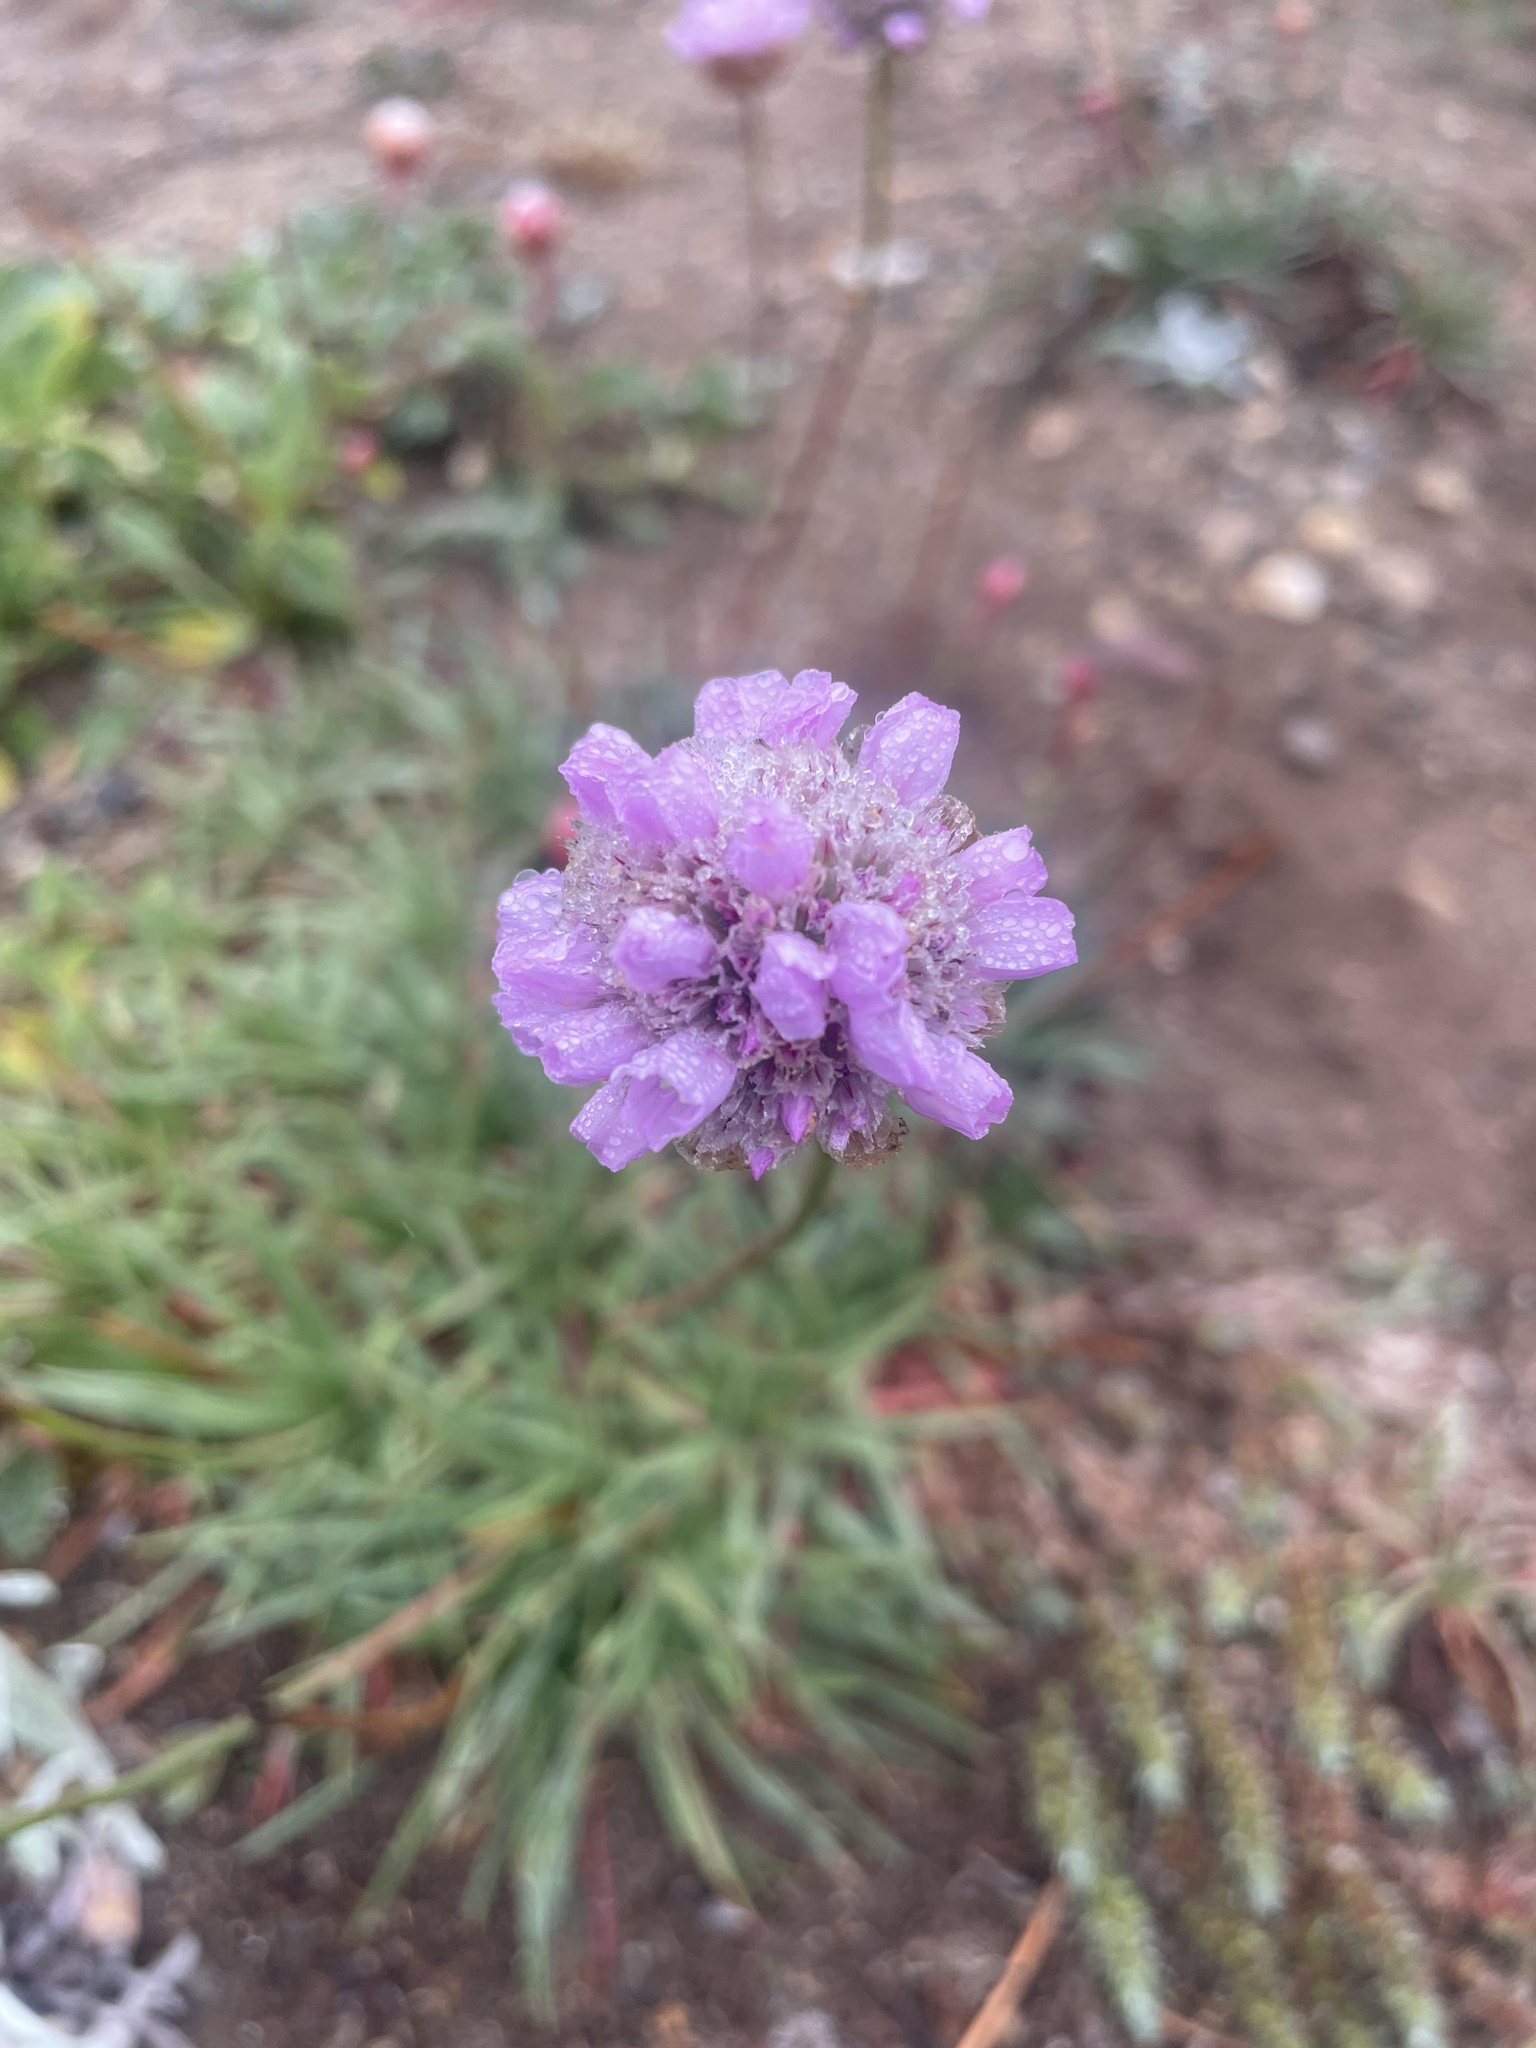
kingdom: Plantae
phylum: Tracheophyta
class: Magnoliopsida
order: Caryophyllales
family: Plumbaginaceae
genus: Armeria
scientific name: Armeria maritima
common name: Thrift
